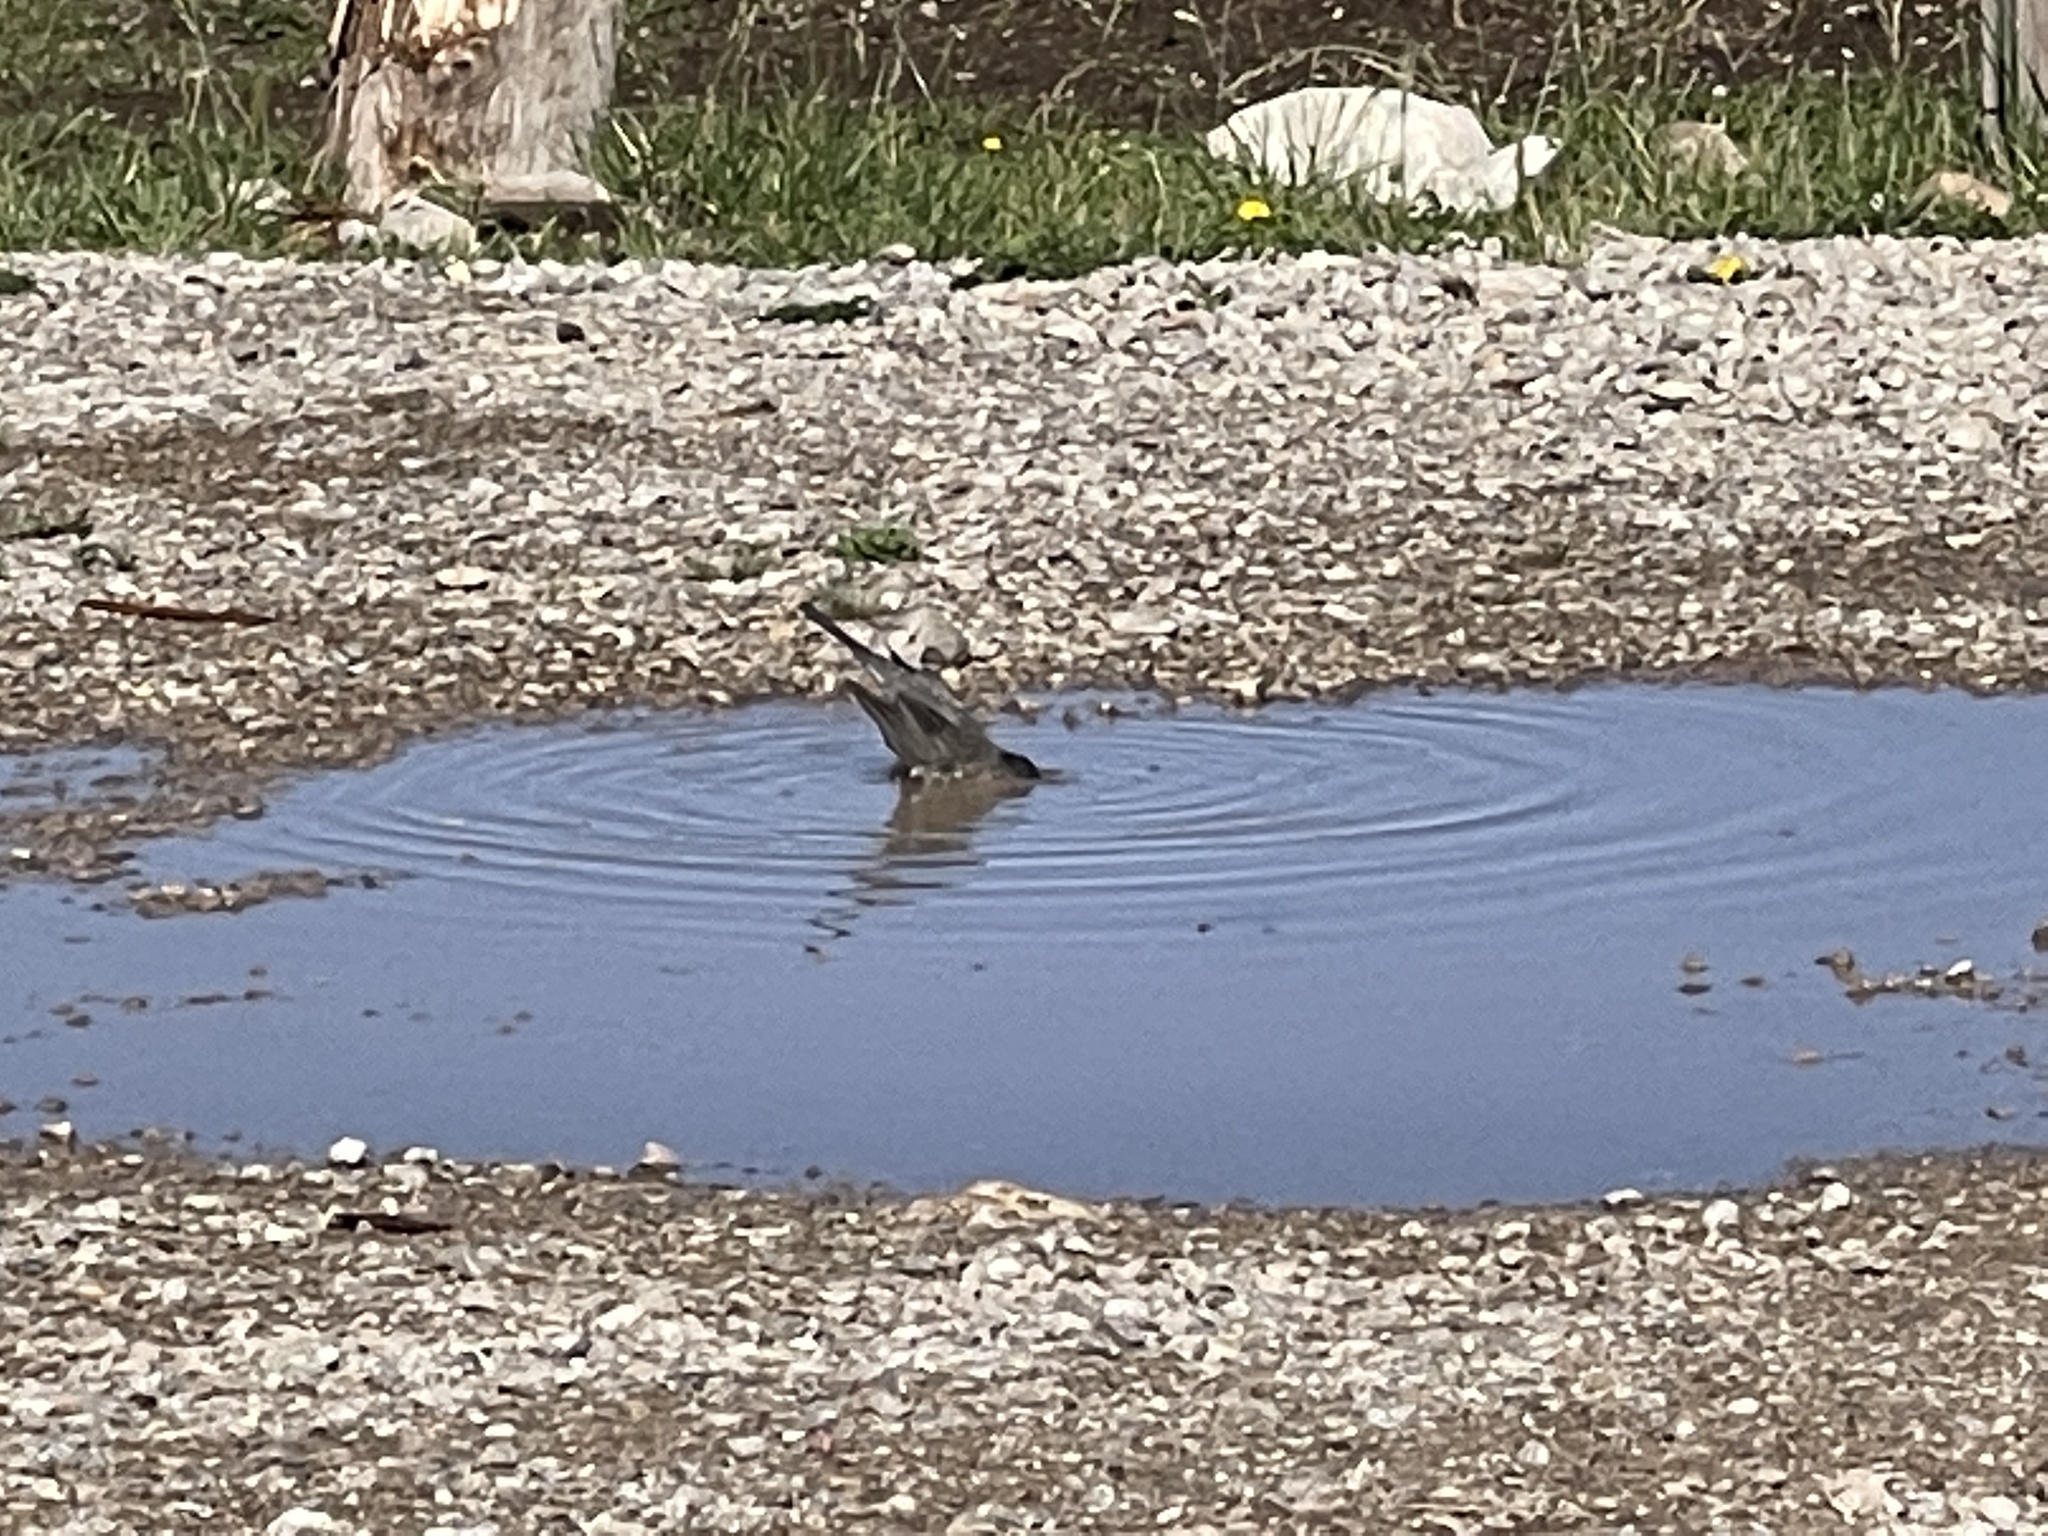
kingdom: Animalia
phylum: Chordata
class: Aves
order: Passeriformes
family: Turdidae
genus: Turdus
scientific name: Turdus migratorius
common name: American robin
